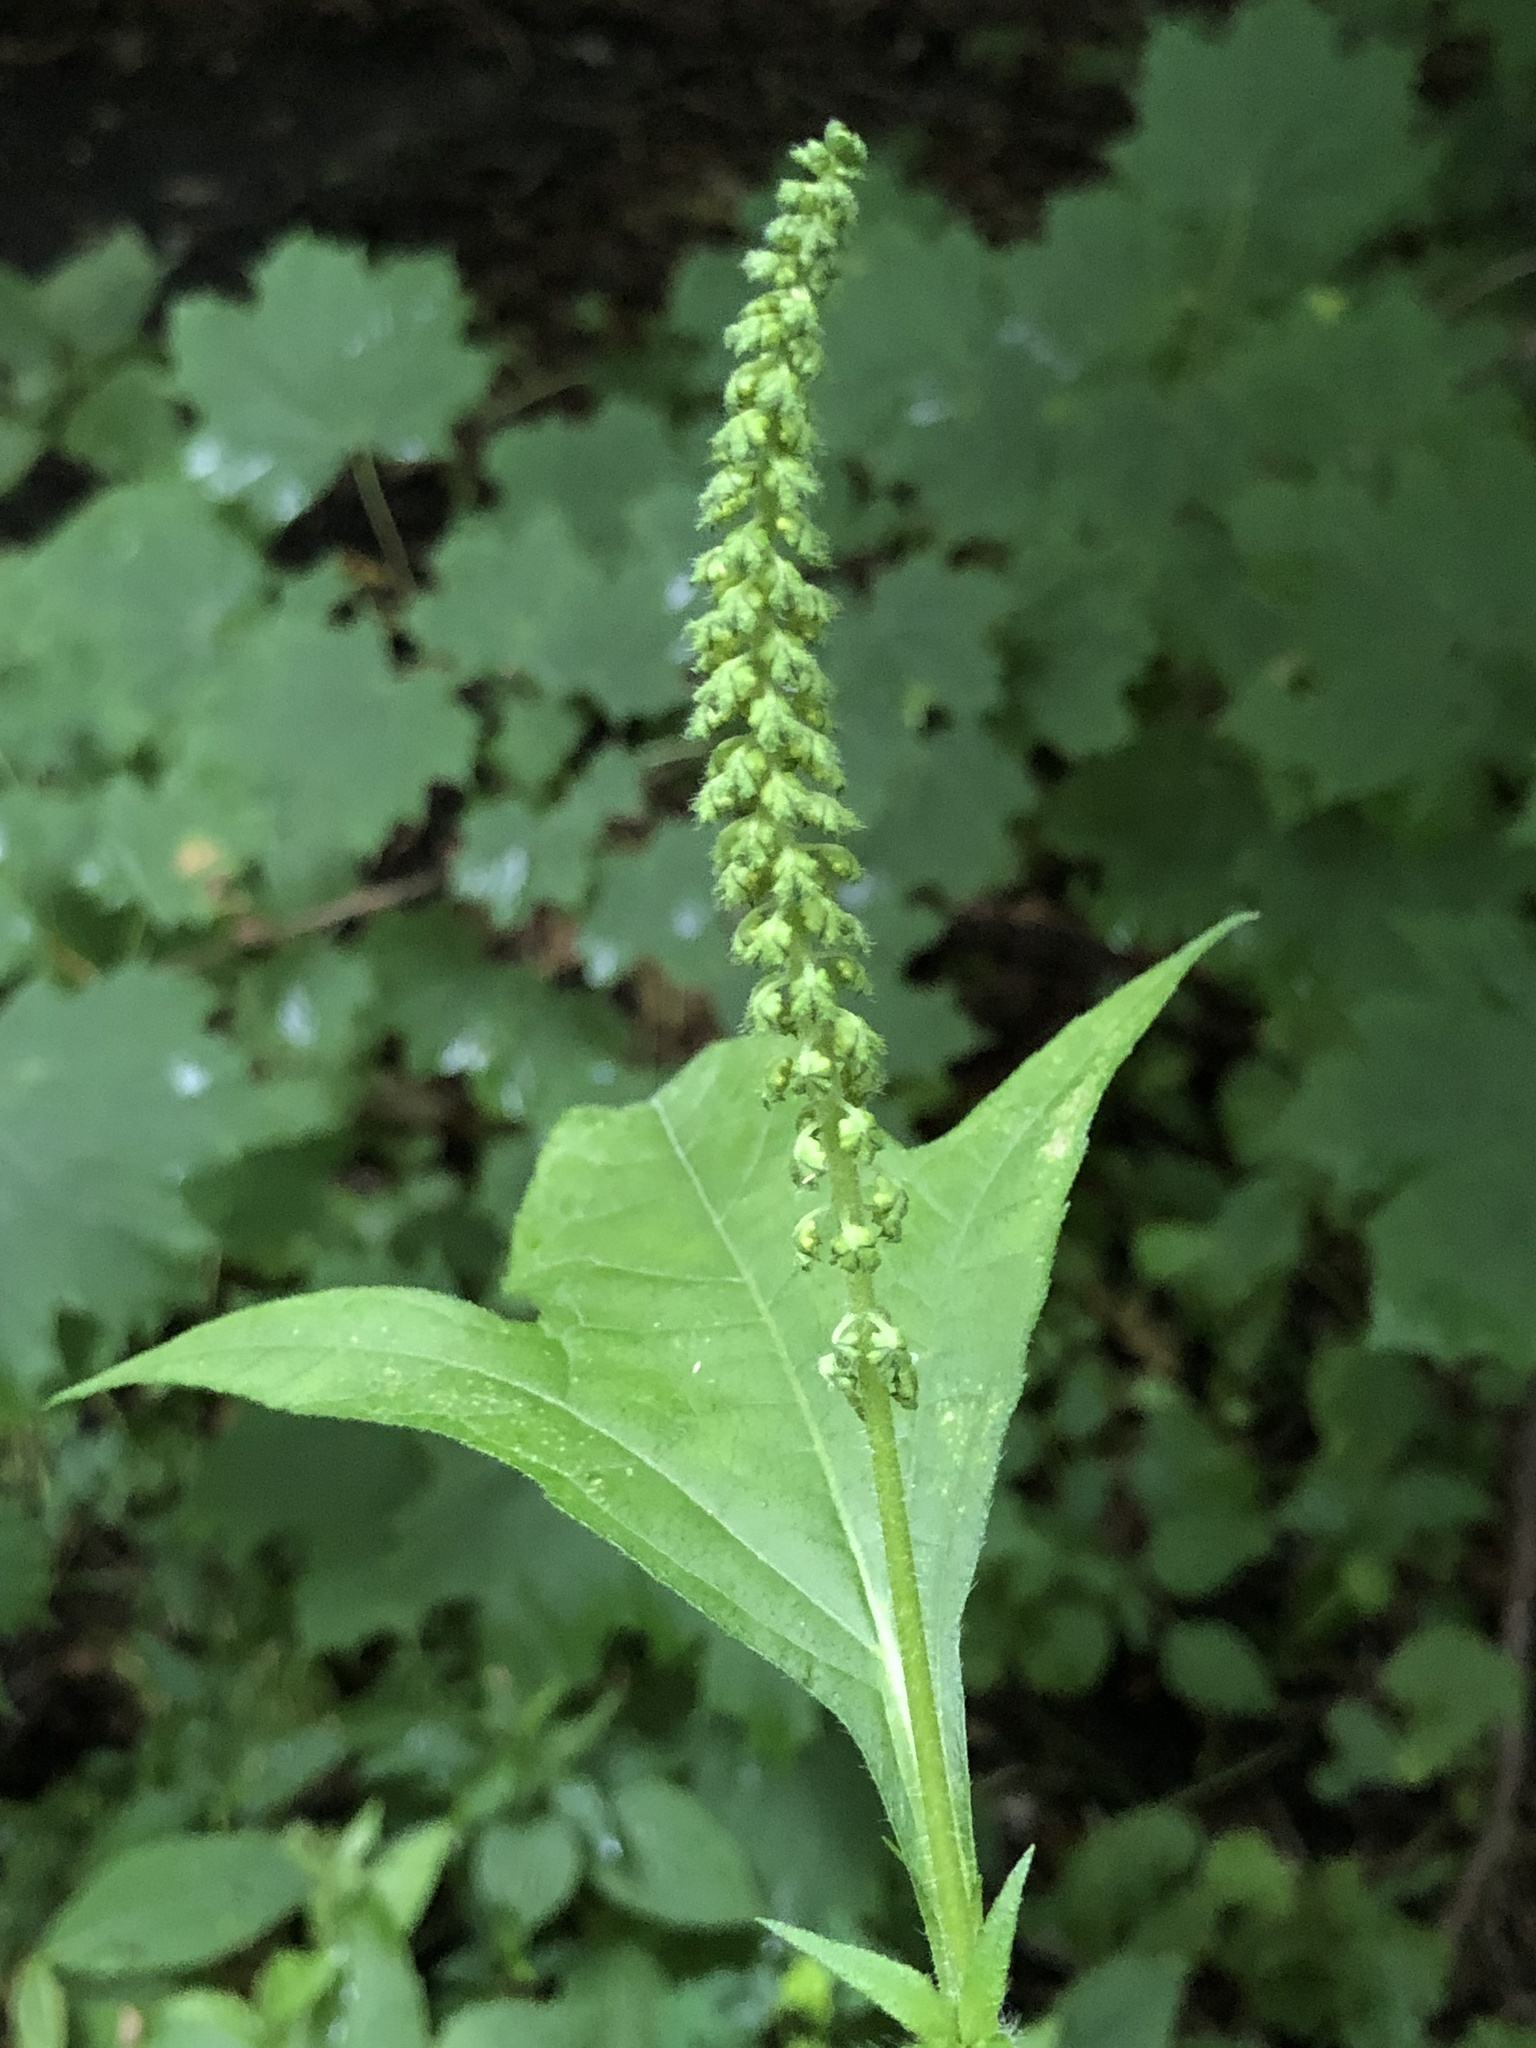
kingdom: Plantae
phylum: Tracheophyta
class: Magnoliopsida
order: Asterales
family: Asteraceae
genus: Ambrosia
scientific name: Ambrosia trifida
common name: Giant ragweed
